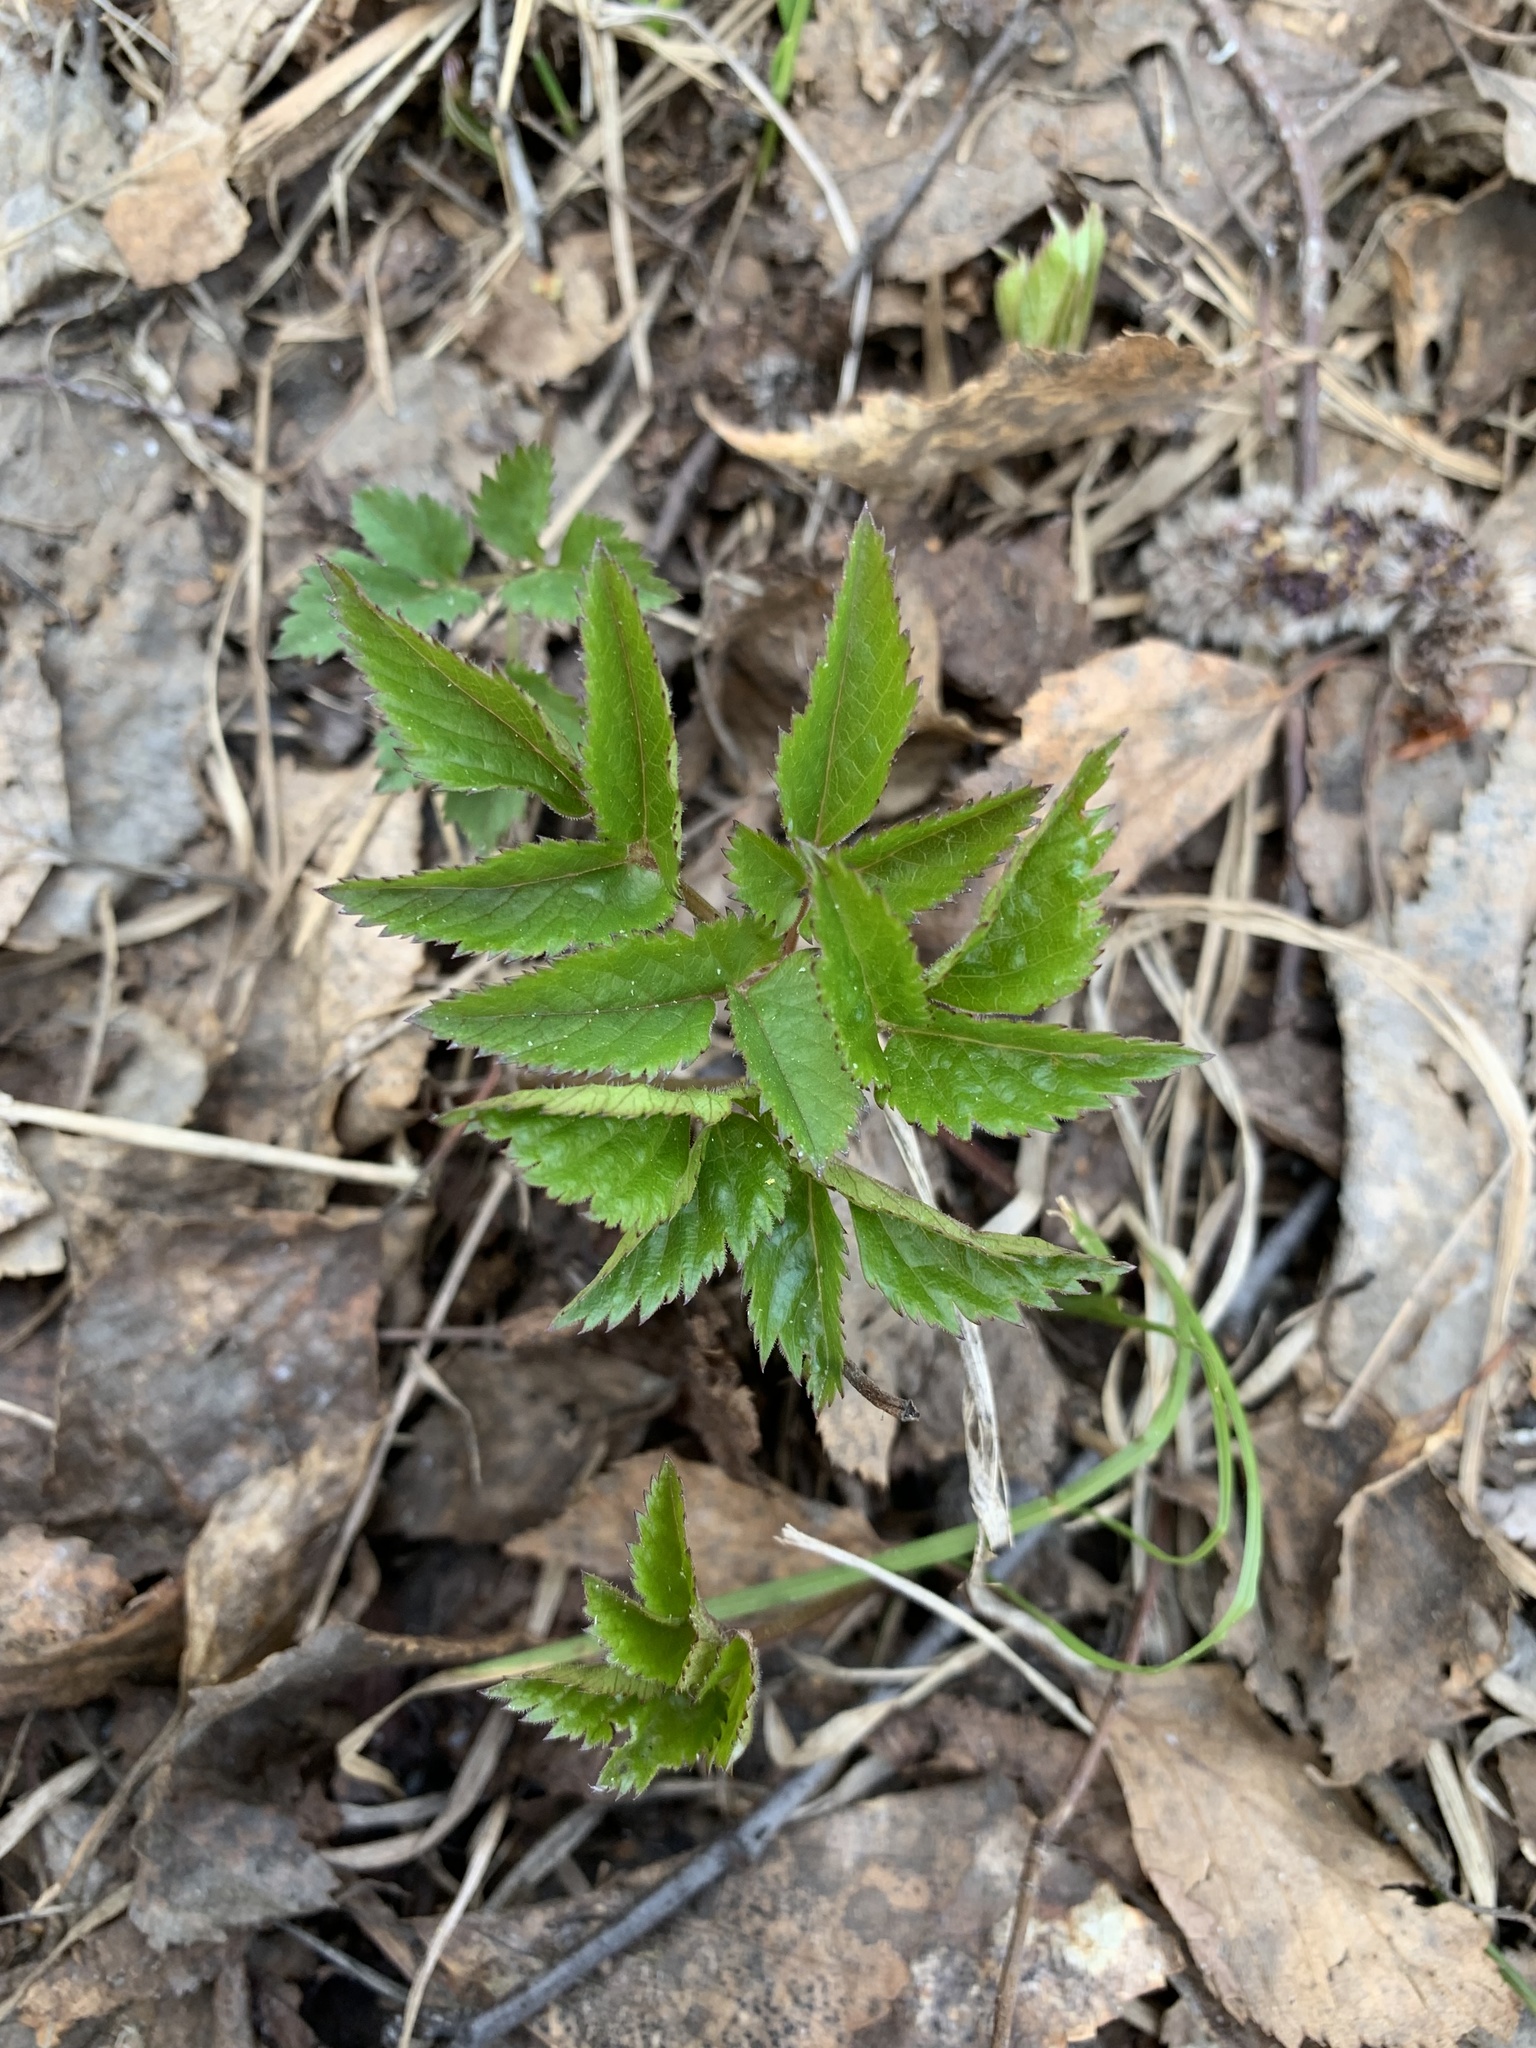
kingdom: Plantae
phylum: Tracheophyta
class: Magnoliopsida
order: Apiales
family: Apiaceae
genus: Aegopodium
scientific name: Aegopodium podagraria
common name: Ground-elder
